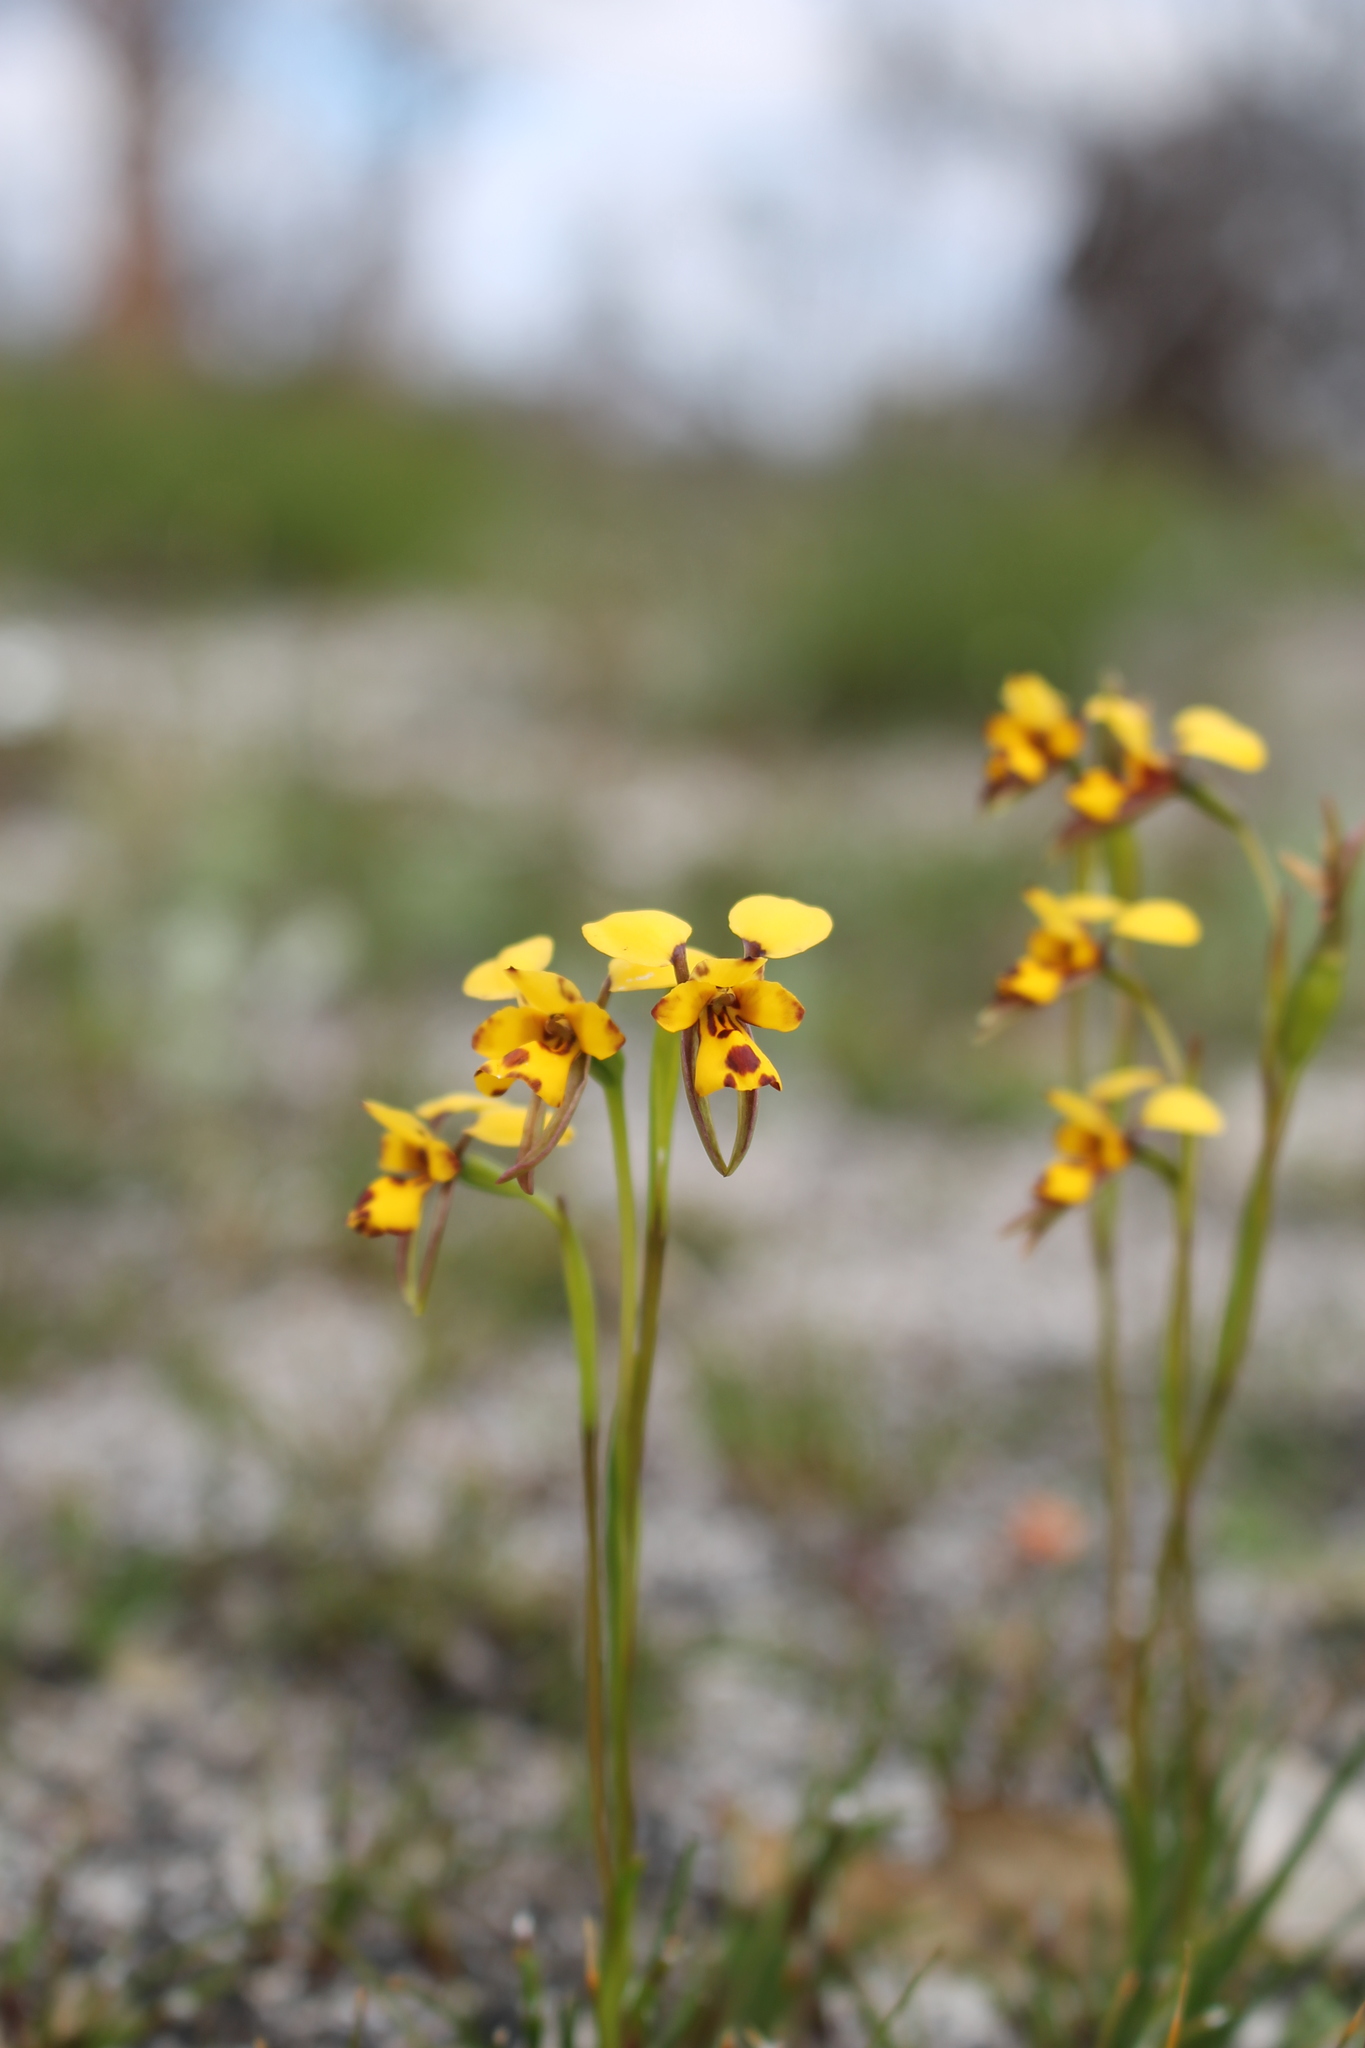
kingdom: Plantae
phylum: Tracheophyta
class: Liliopsida
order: Asparagales
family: Orchidaceae
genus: Diuris
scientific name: Diuris decrementum
